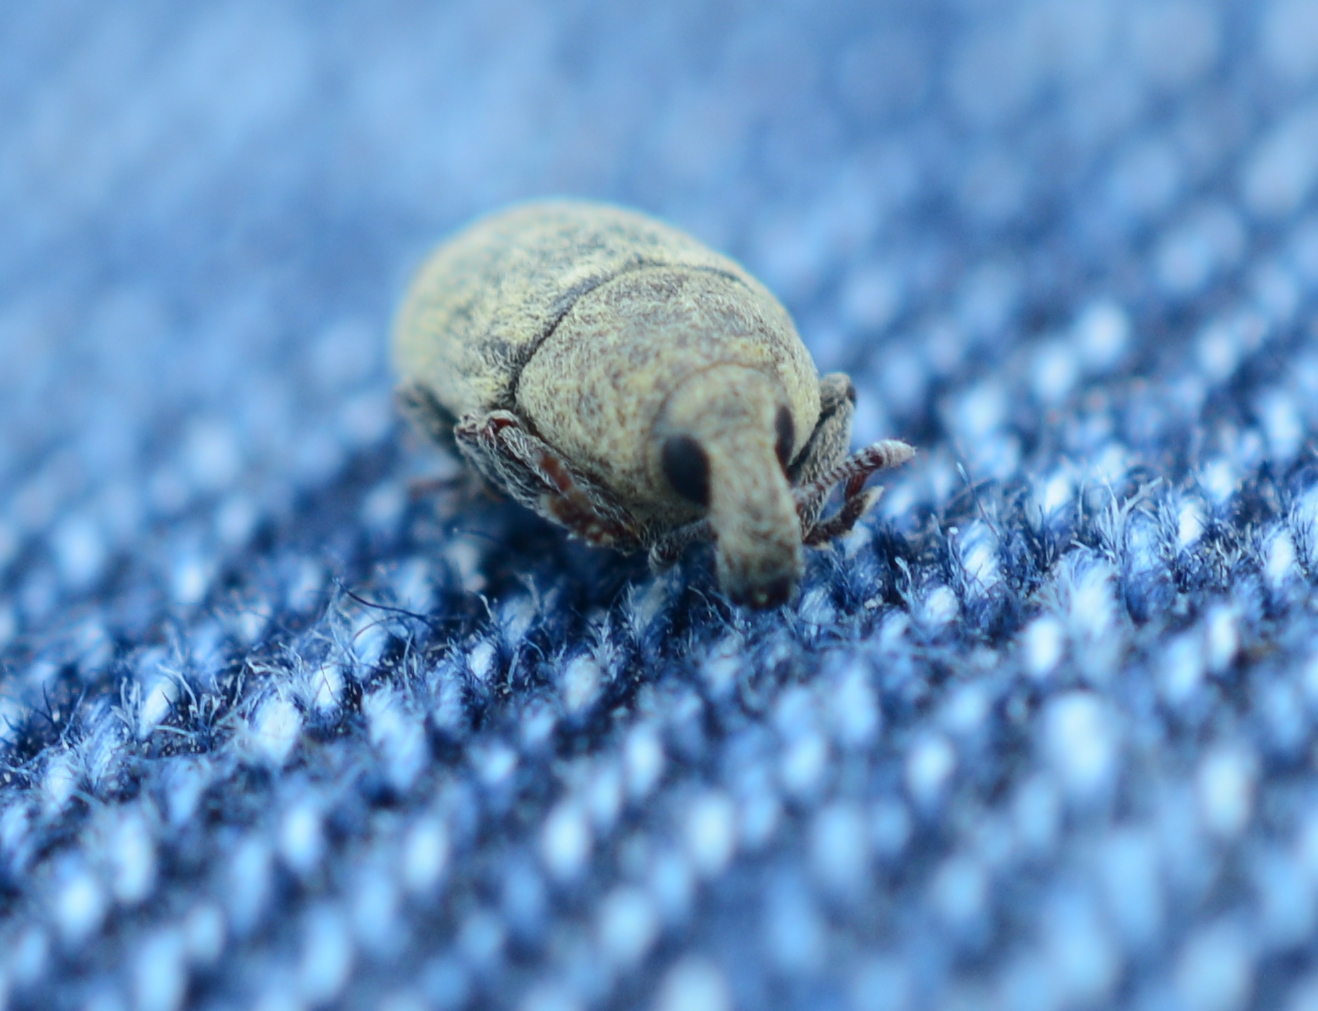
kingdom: Animalia
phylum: Arthropoda
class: Insecta
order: Coleoptera
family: Curculionidae
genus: Larinus
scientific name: Larinus minutus
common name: Weevil
